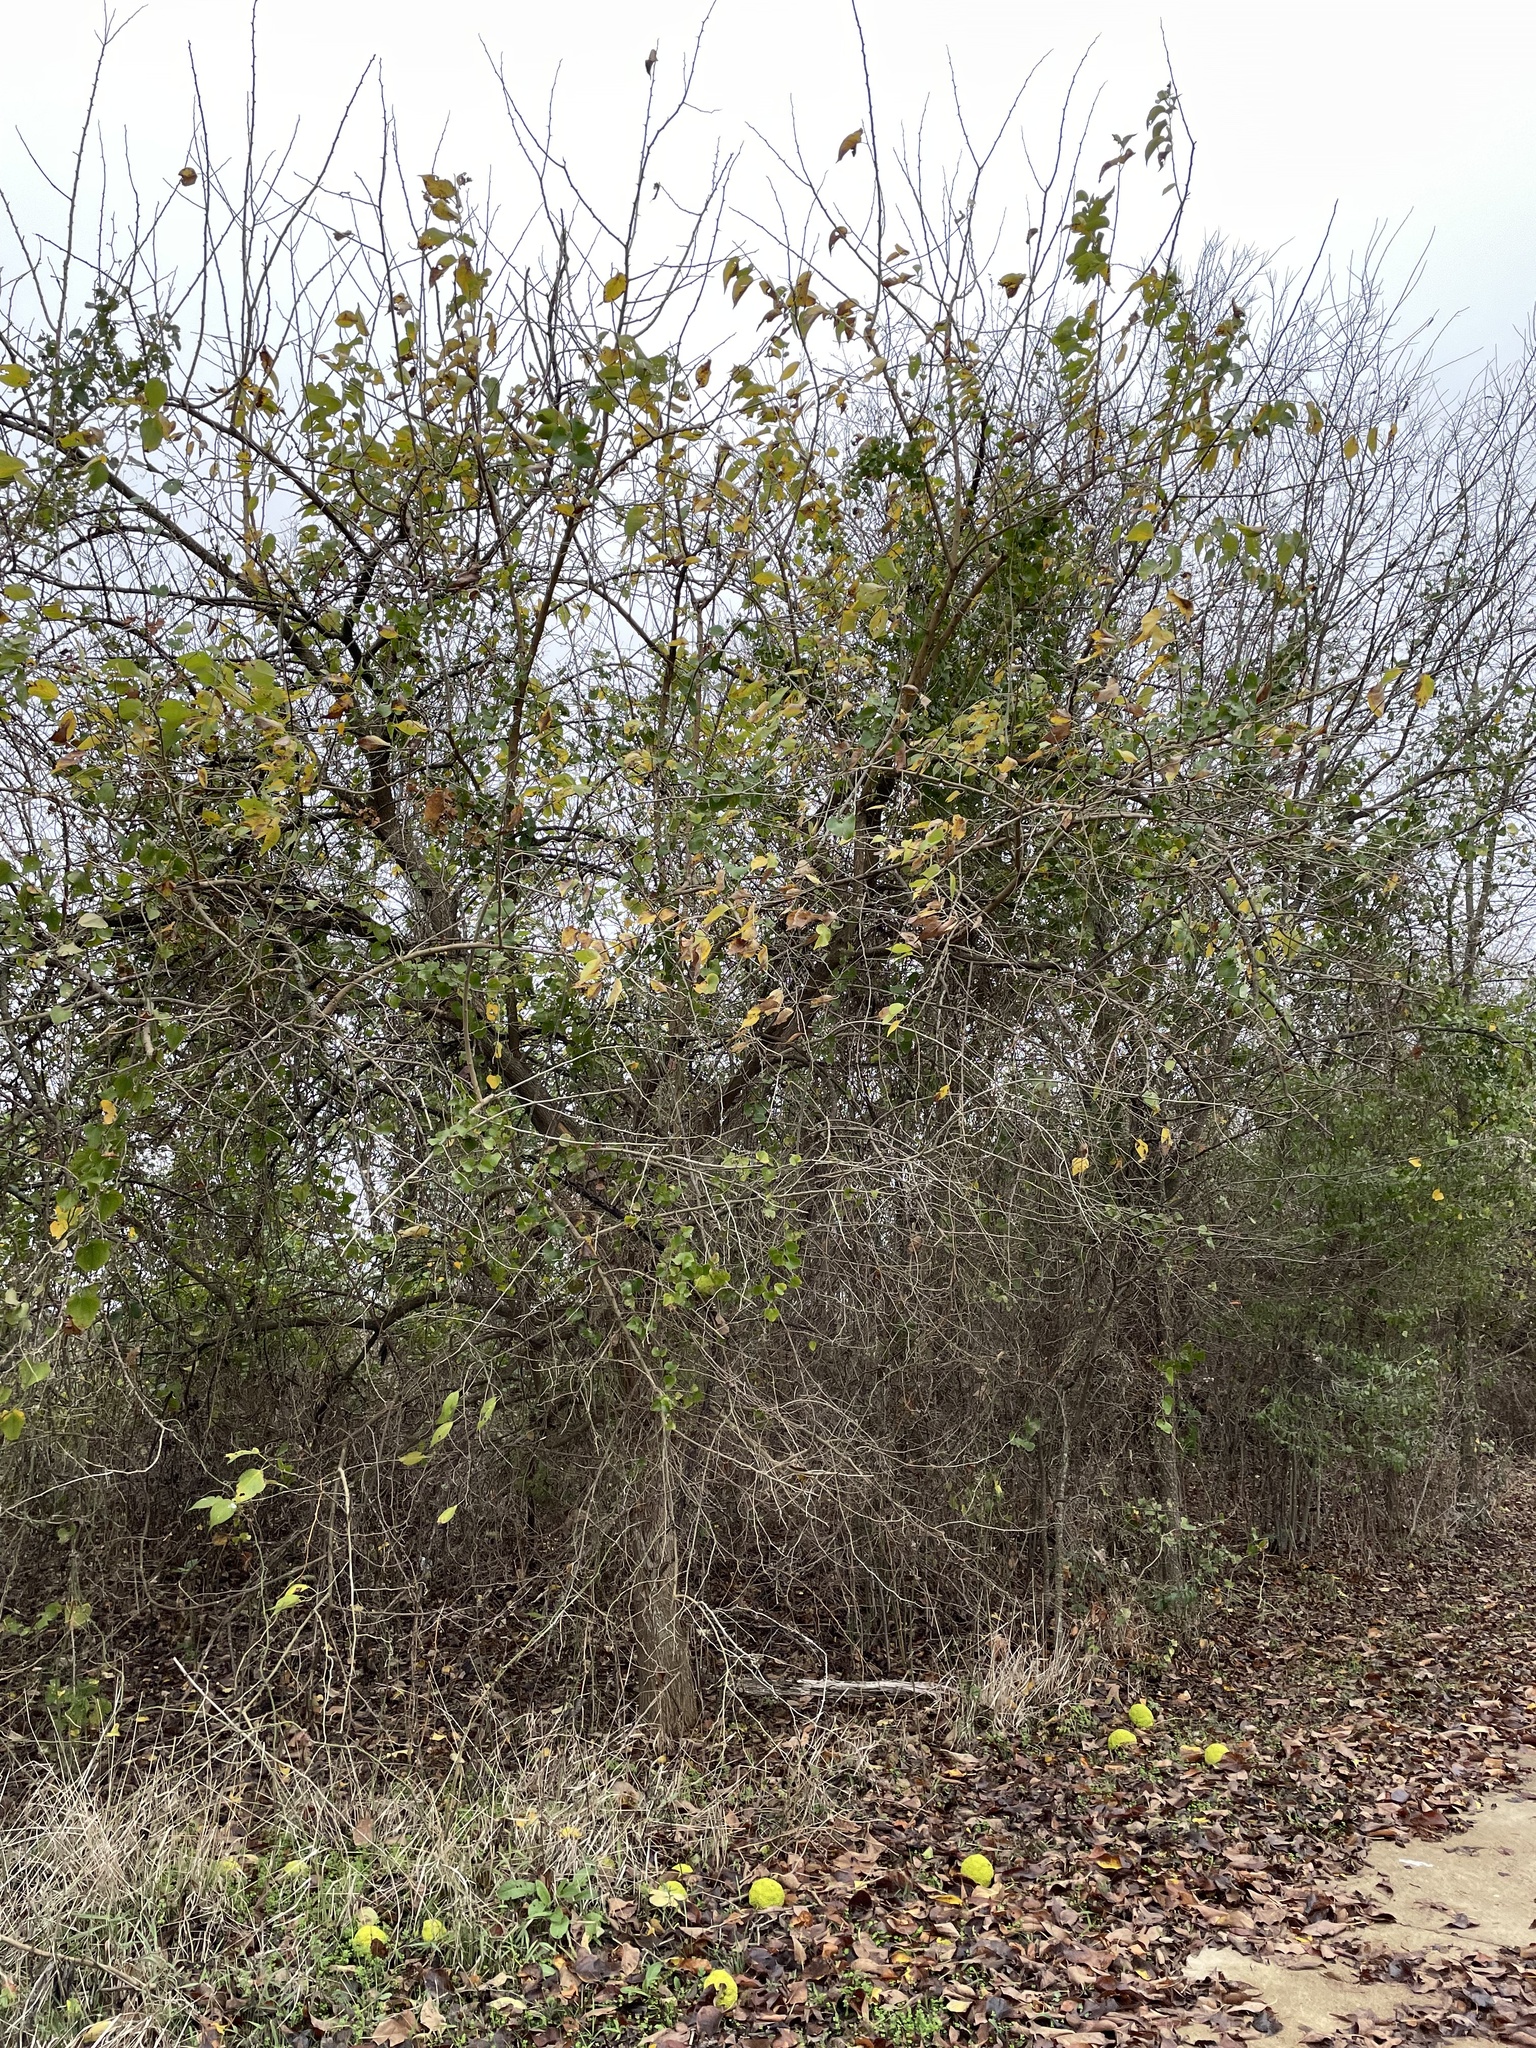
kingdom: Plantae
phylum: Tracheophyta
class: Magnoliopsida
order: Rosales
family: Moraceae
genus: Maclura
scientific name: Maclura pomifera
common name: Osage-orange
